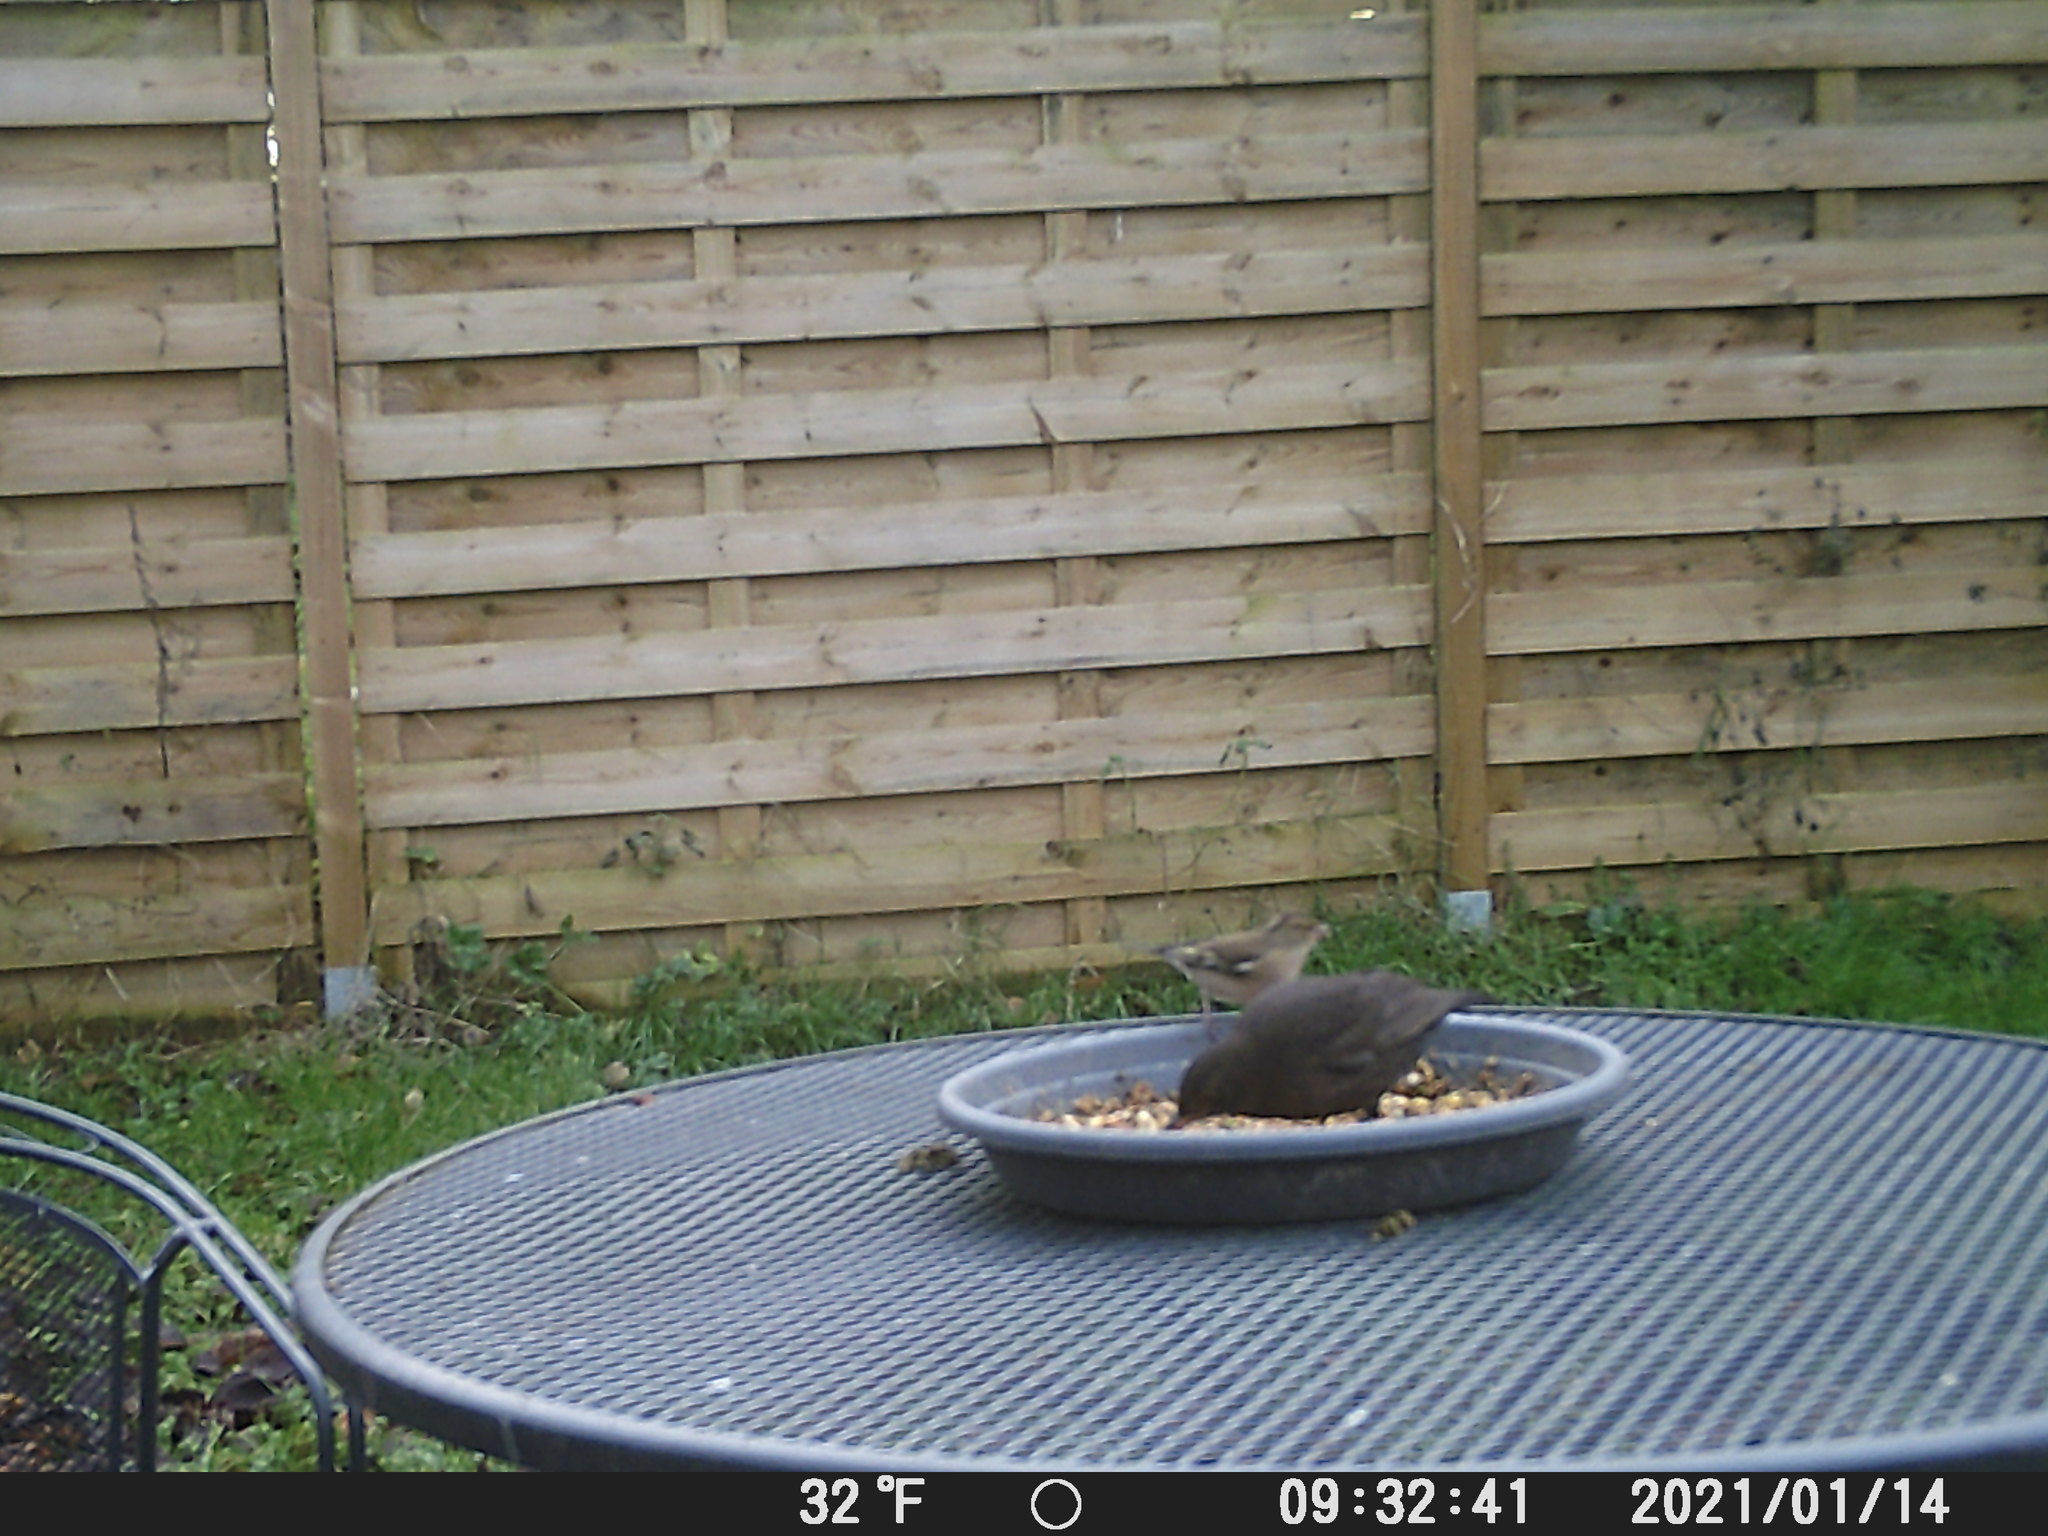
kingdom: Animalia
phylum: Chordata
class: Aves
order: Passeriformes
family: Fringillidae
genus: Fringilla
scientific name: Fringilla coelebs
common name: Common chaffinch
